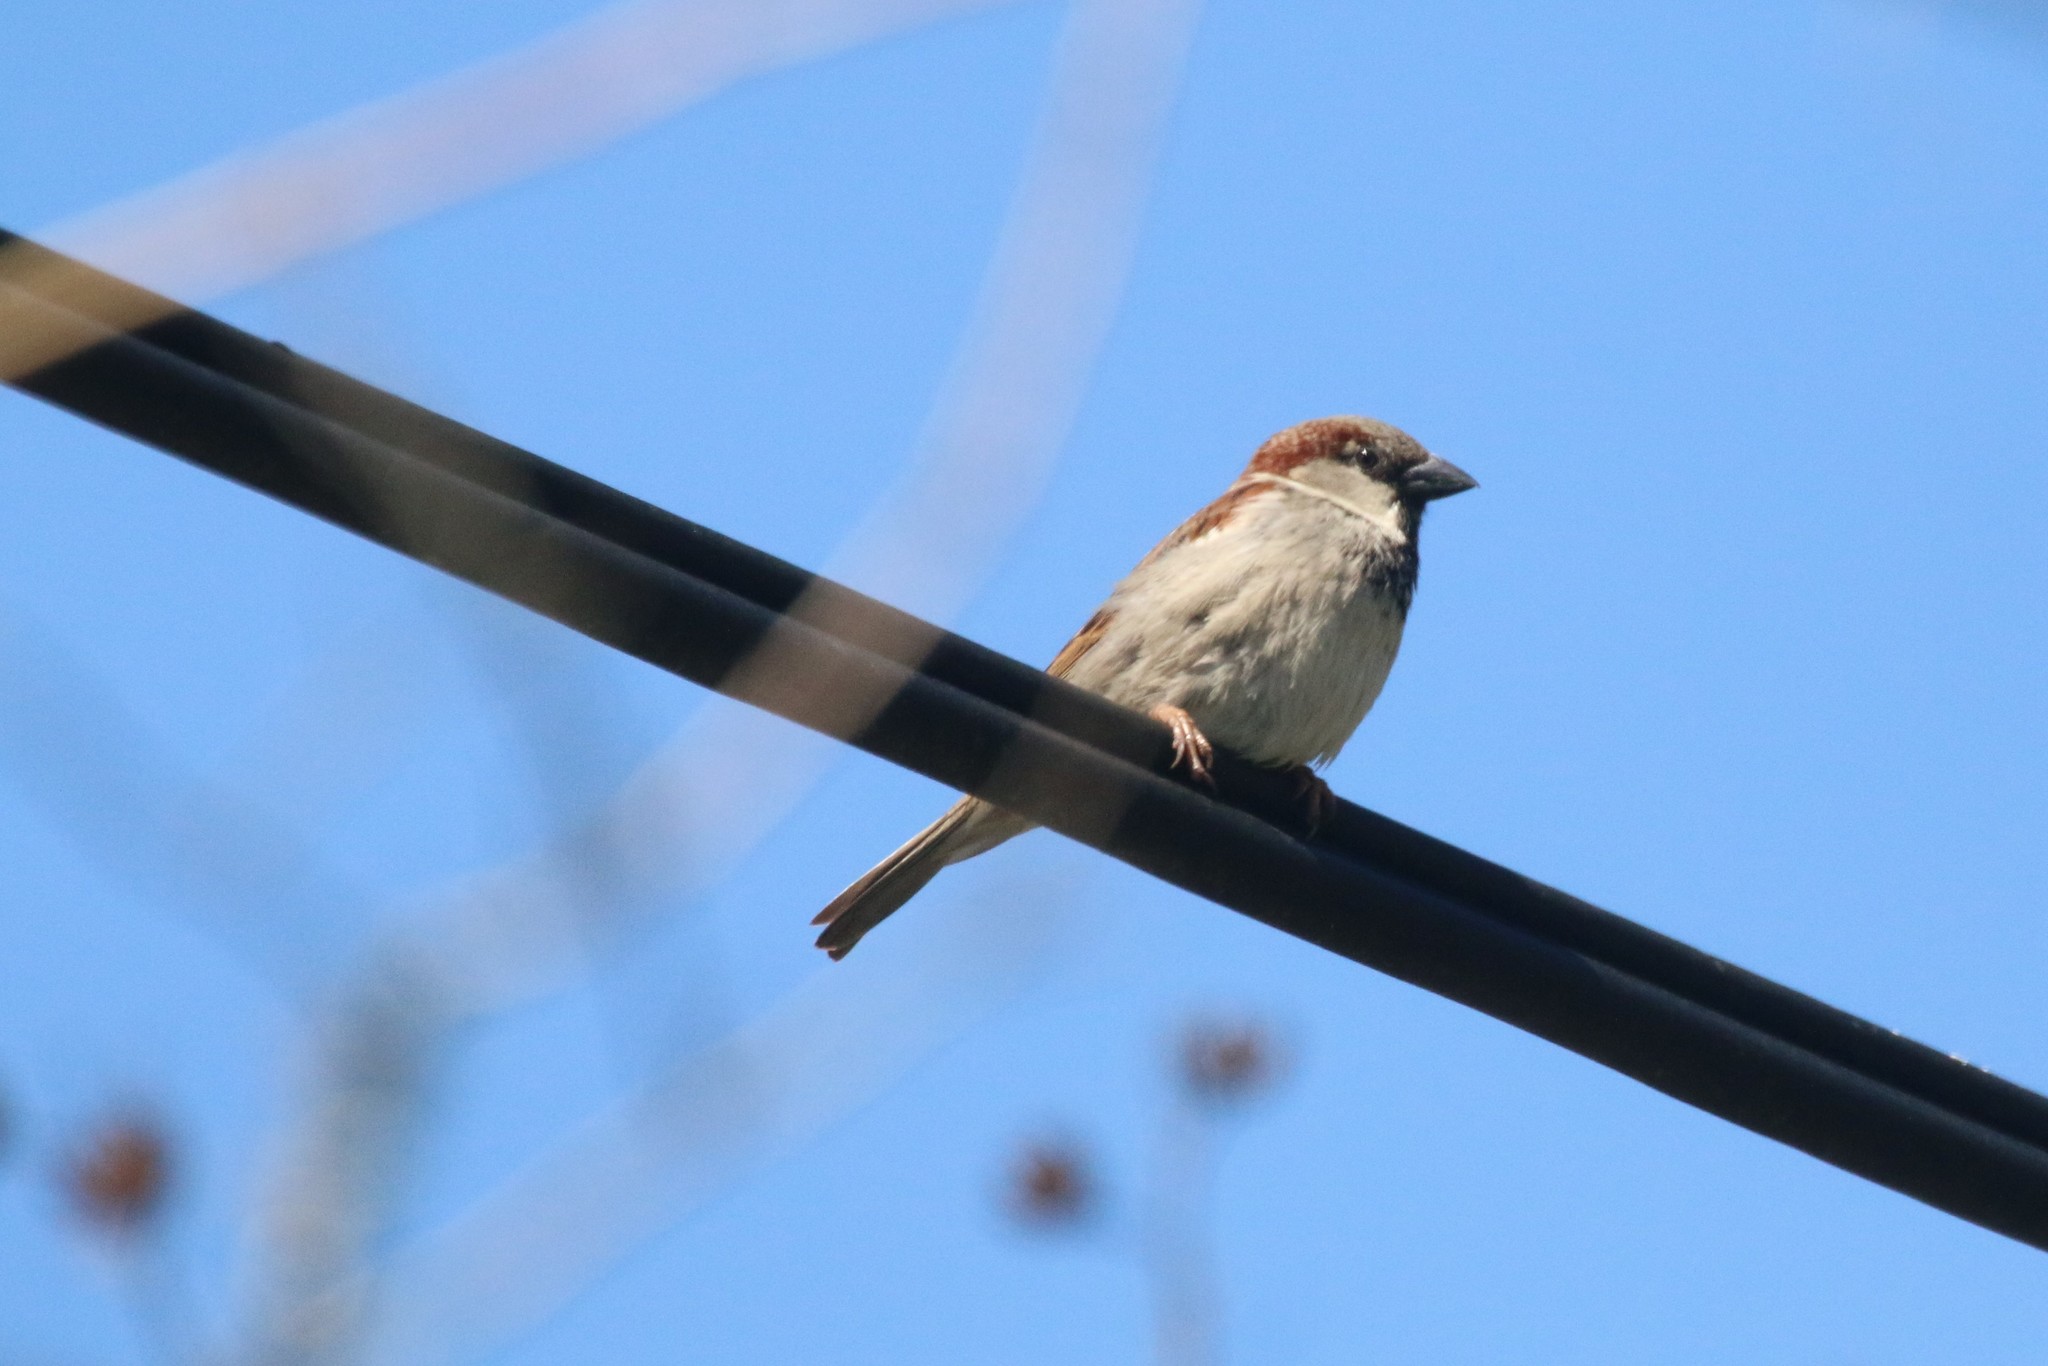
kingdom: Animalia
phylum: Chordata
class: Aves
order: Passeriformes
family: Passeridae
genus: Passer
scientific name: Passer domesticus
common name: House sparrow
